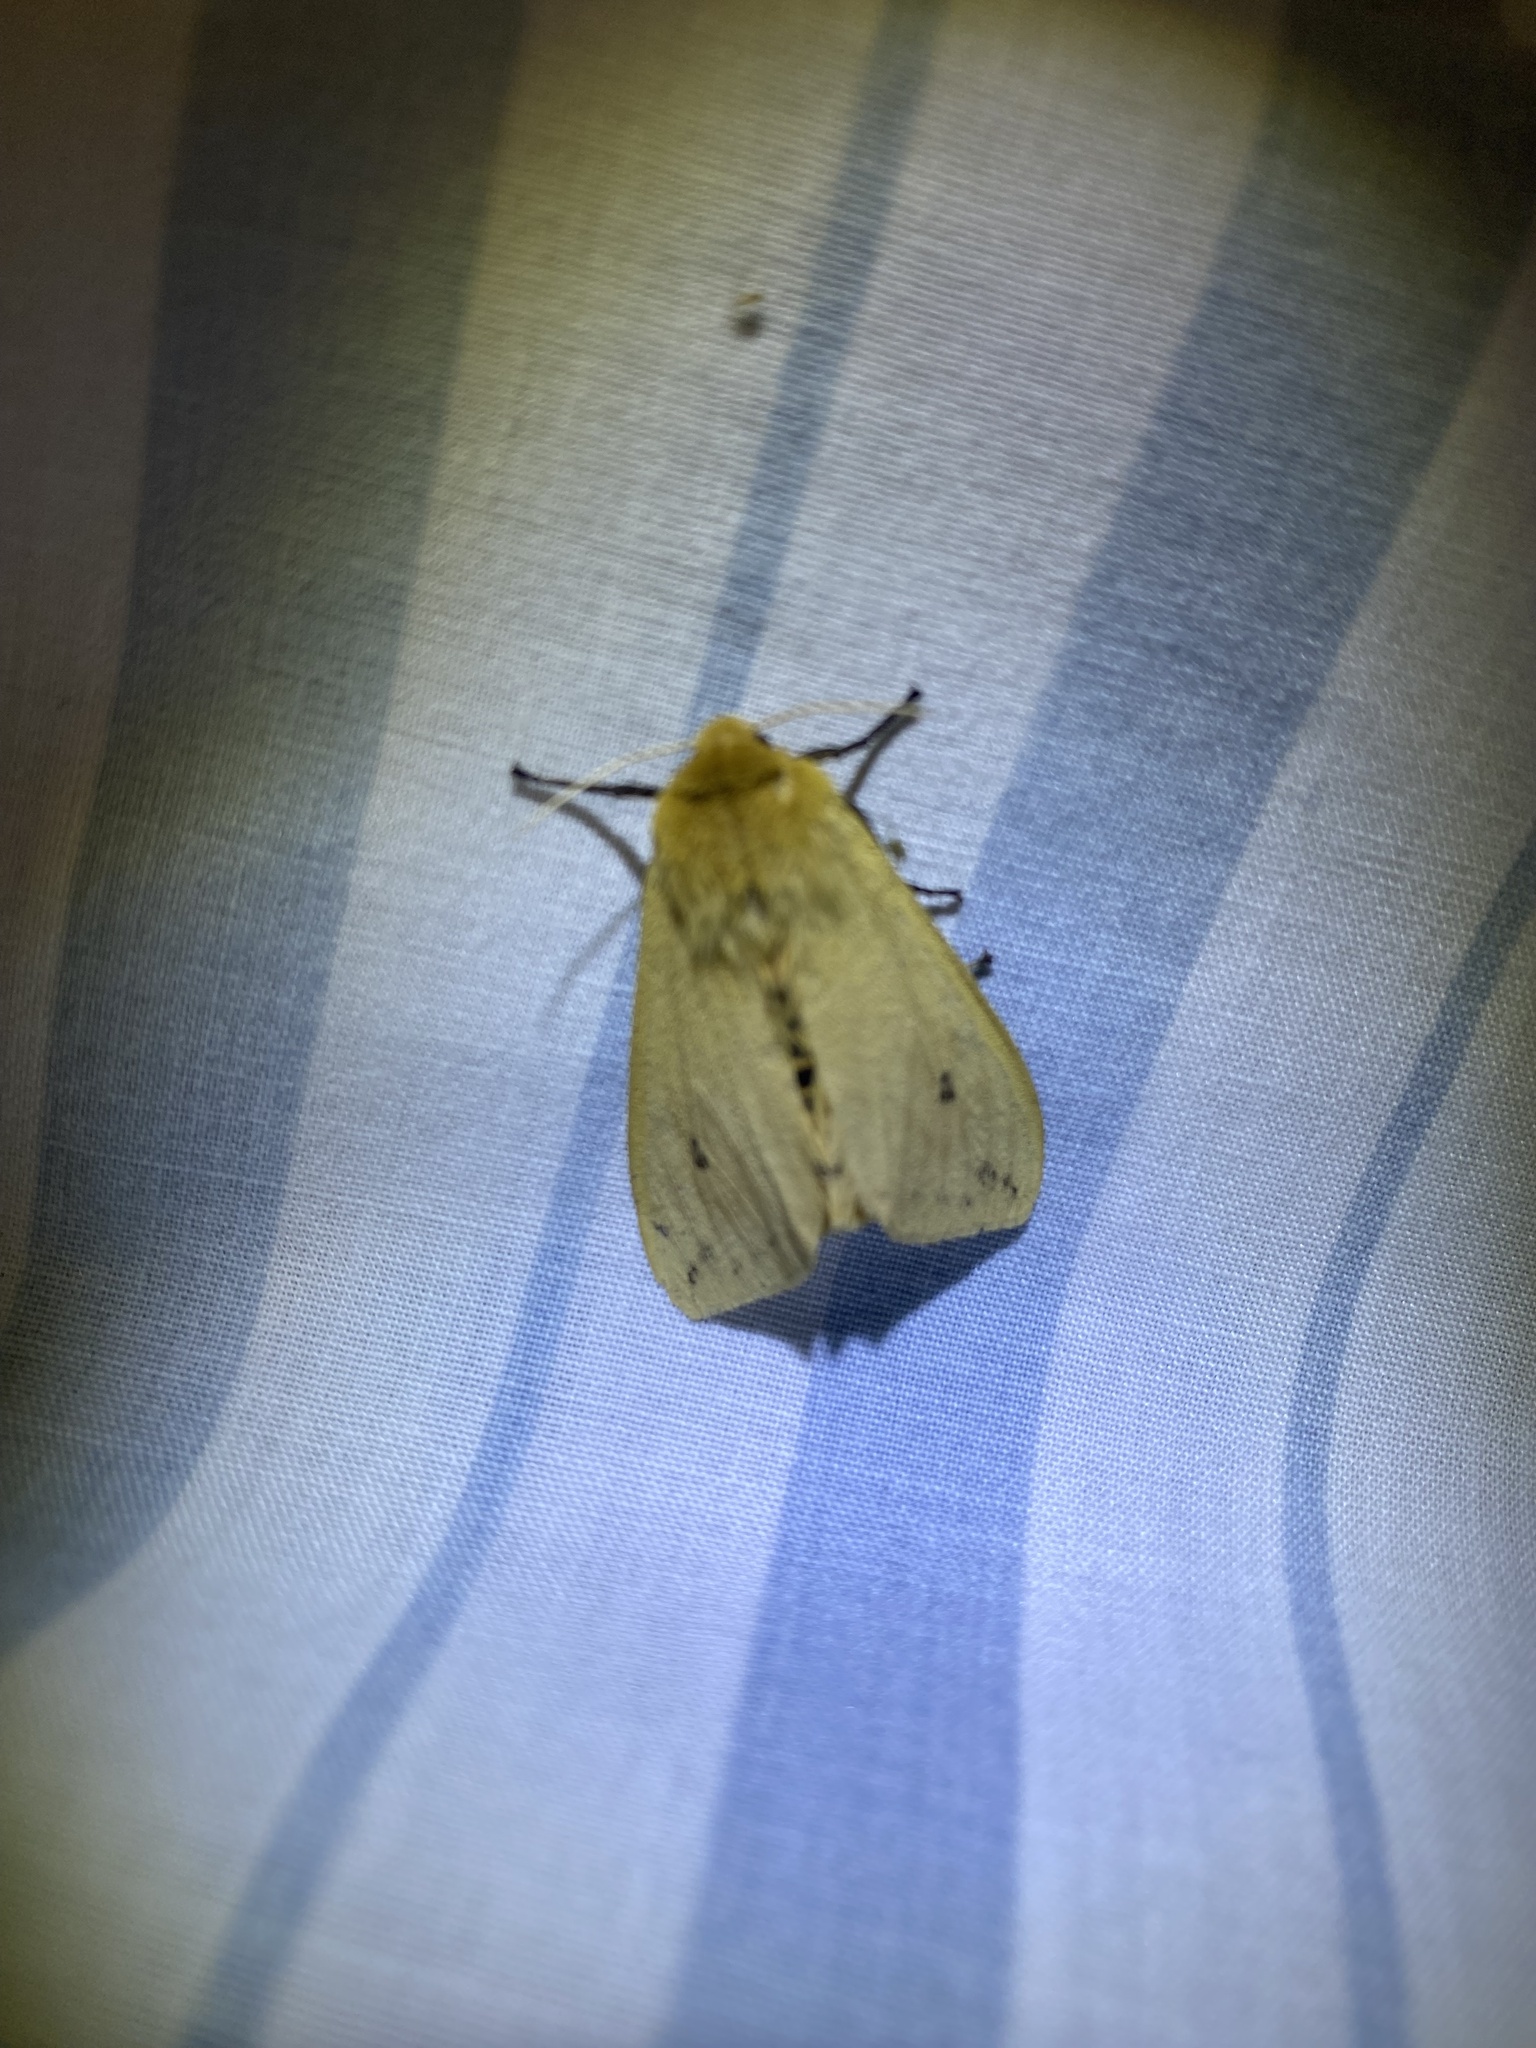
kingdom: Animalia
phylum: Arthropoda
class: Insecta
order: Lepidoptera
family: Erebidae
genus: Pyrrharctia
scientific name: Pyrrharctia isabella
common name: Isabella tiger moth
